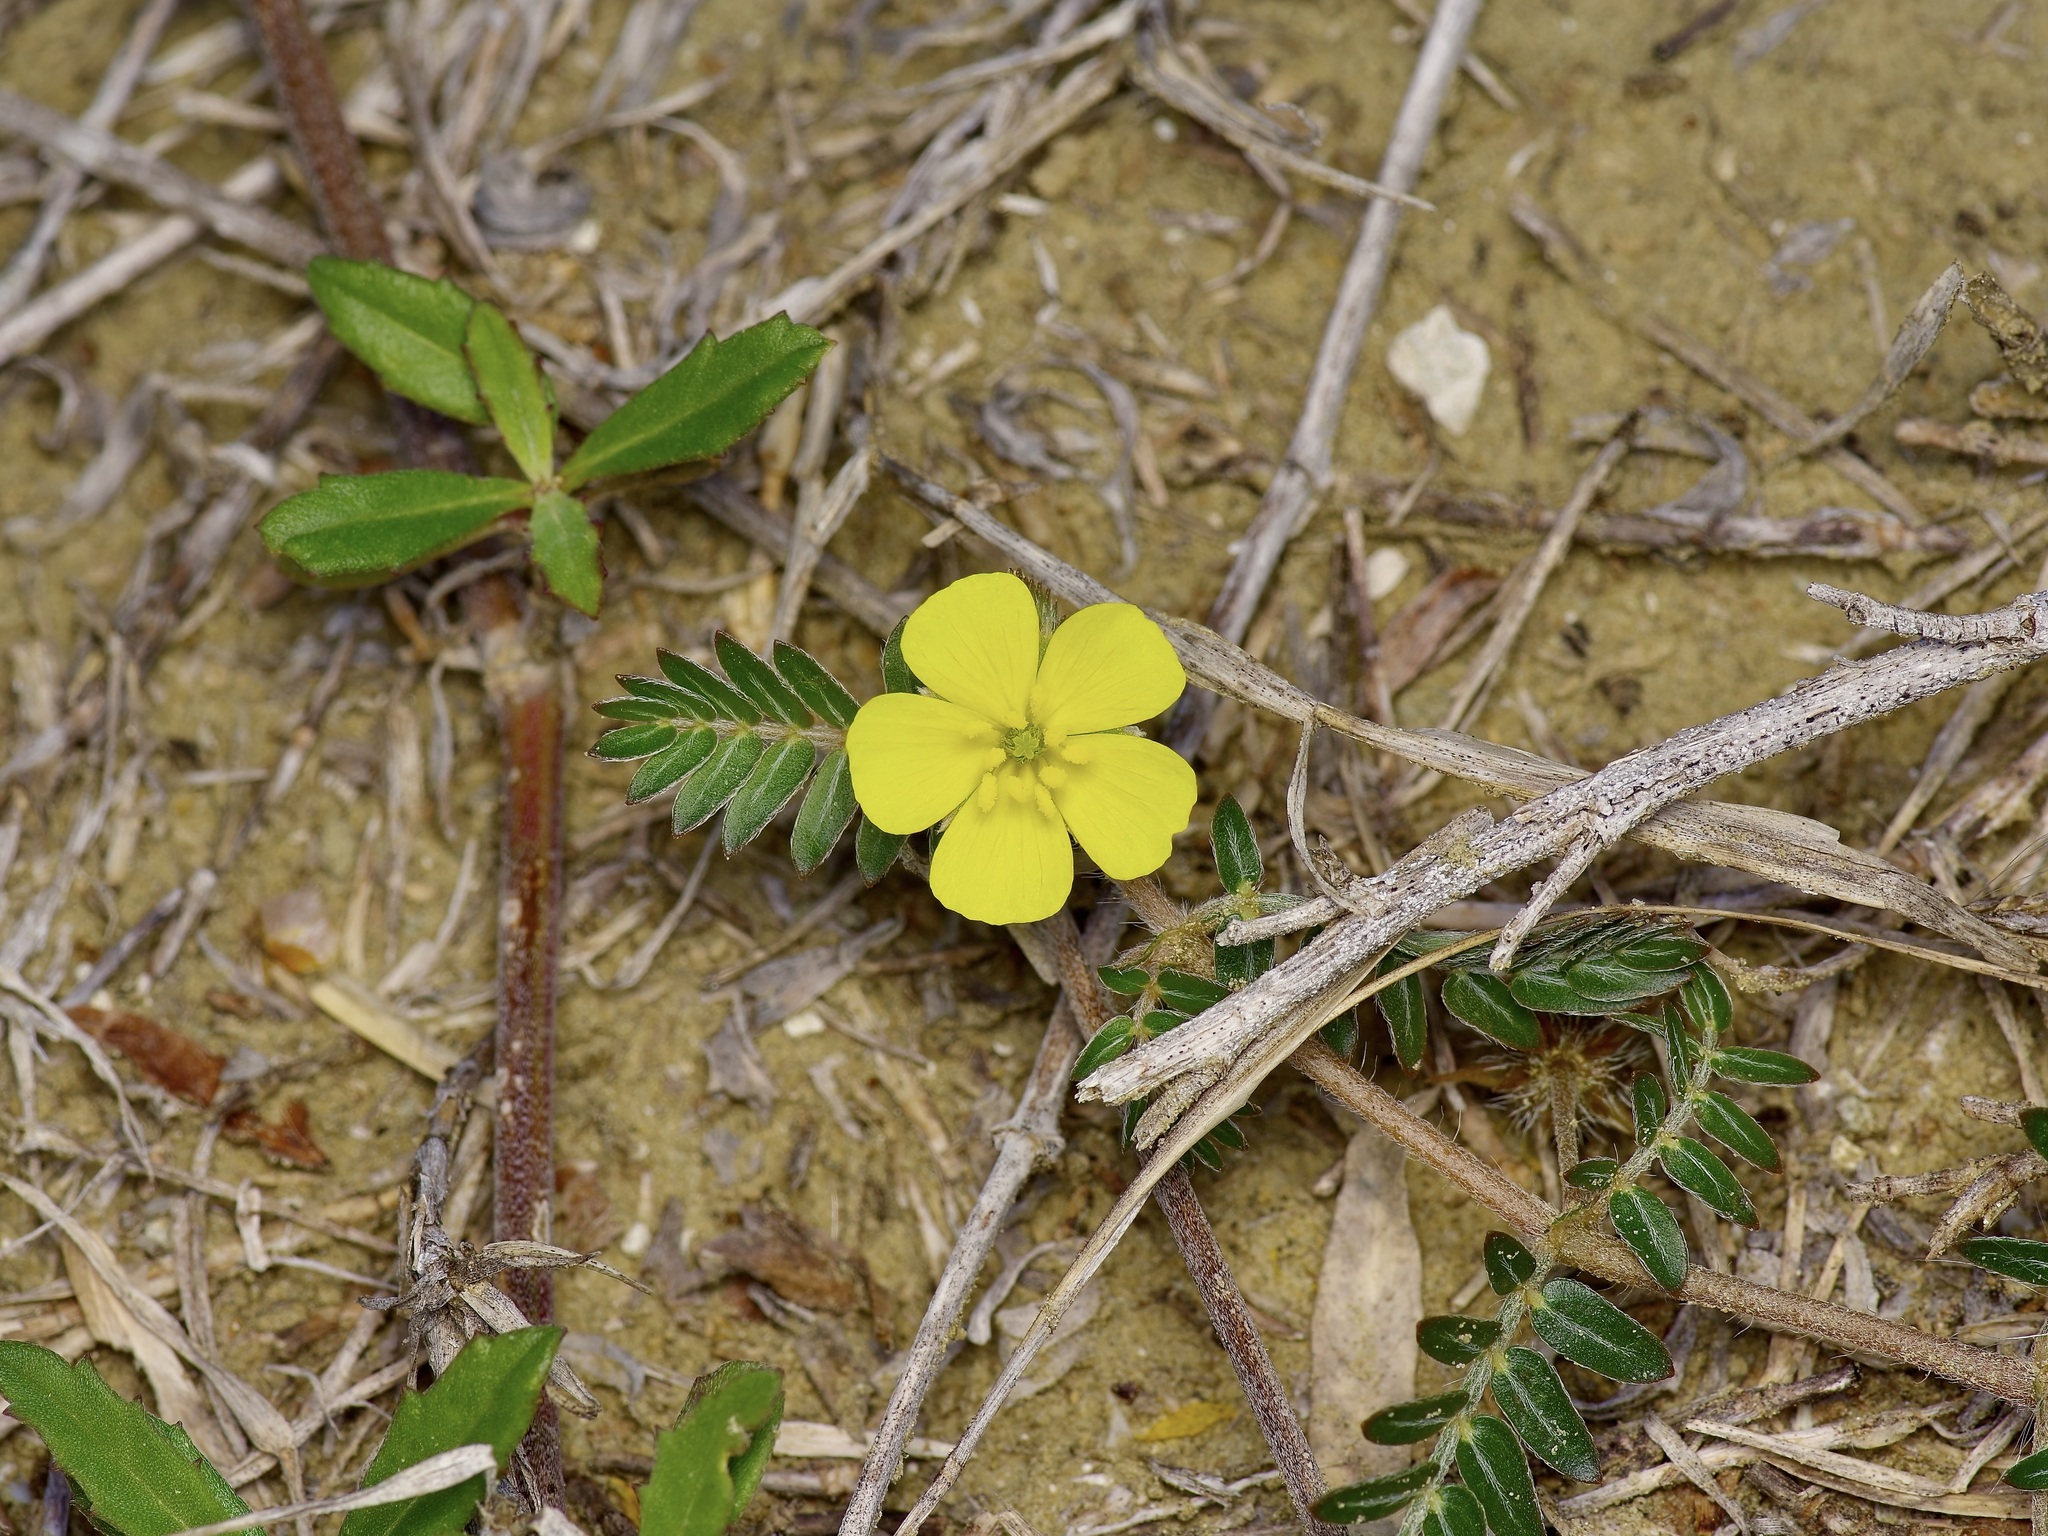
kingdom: Plantae
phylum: Tracheophyta
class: Magnoliopsida
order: Zygophyllales
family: Zygophyllaceae
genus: Tribulus
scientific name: Tribulus terrestris
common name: Puncturevine
